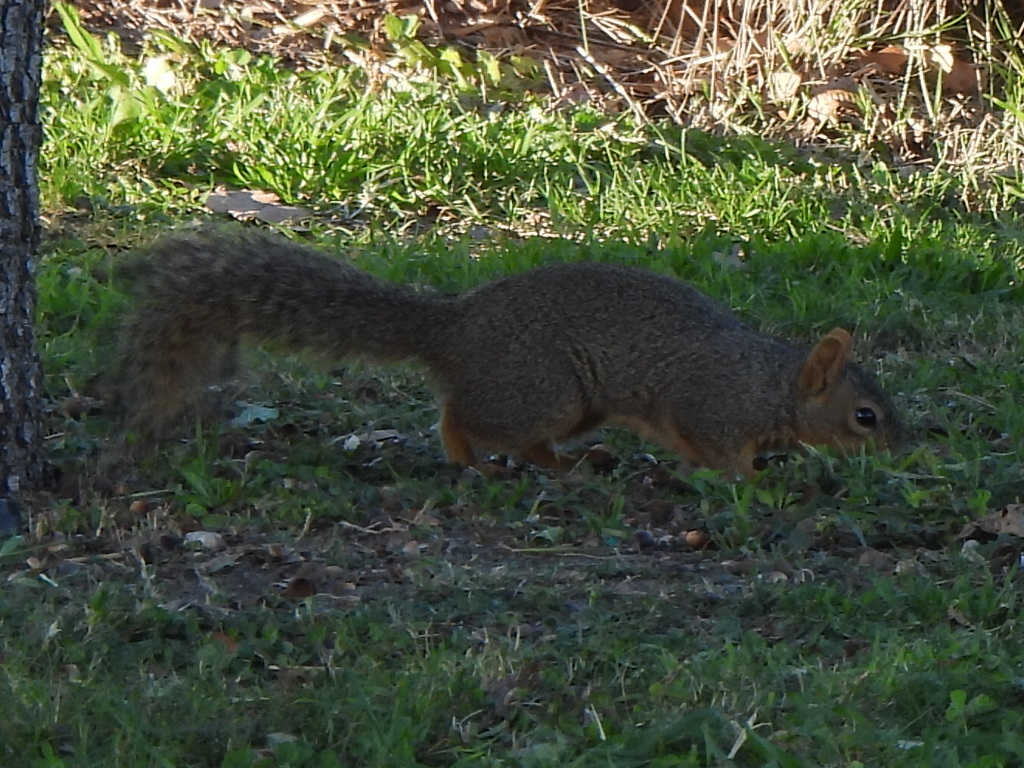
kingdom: Animalia
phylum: Chordata
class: Mammalia
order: Rodentia
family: Sciuridae
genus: Sciurus
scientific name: Sciurus niger
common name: Fox squirrel
